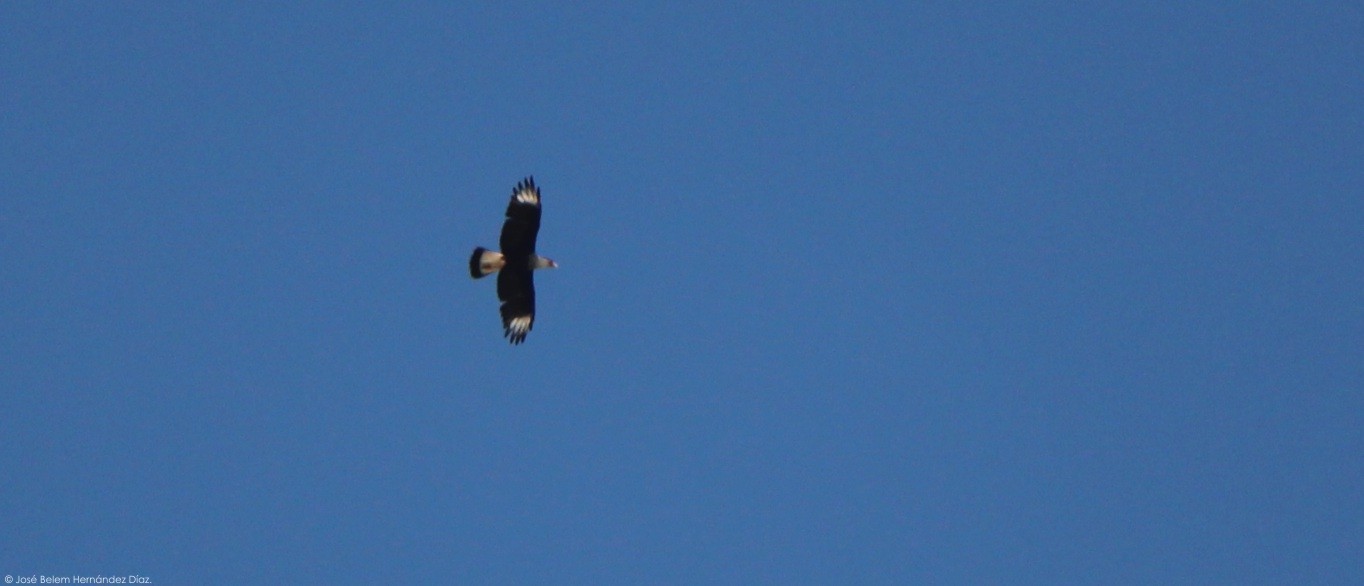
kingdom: Animalia
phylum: Chordata
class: Aves
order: Falconiformes
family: Falconidae
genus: Caracara
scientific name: Caracara plancus
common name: Southern caracara
